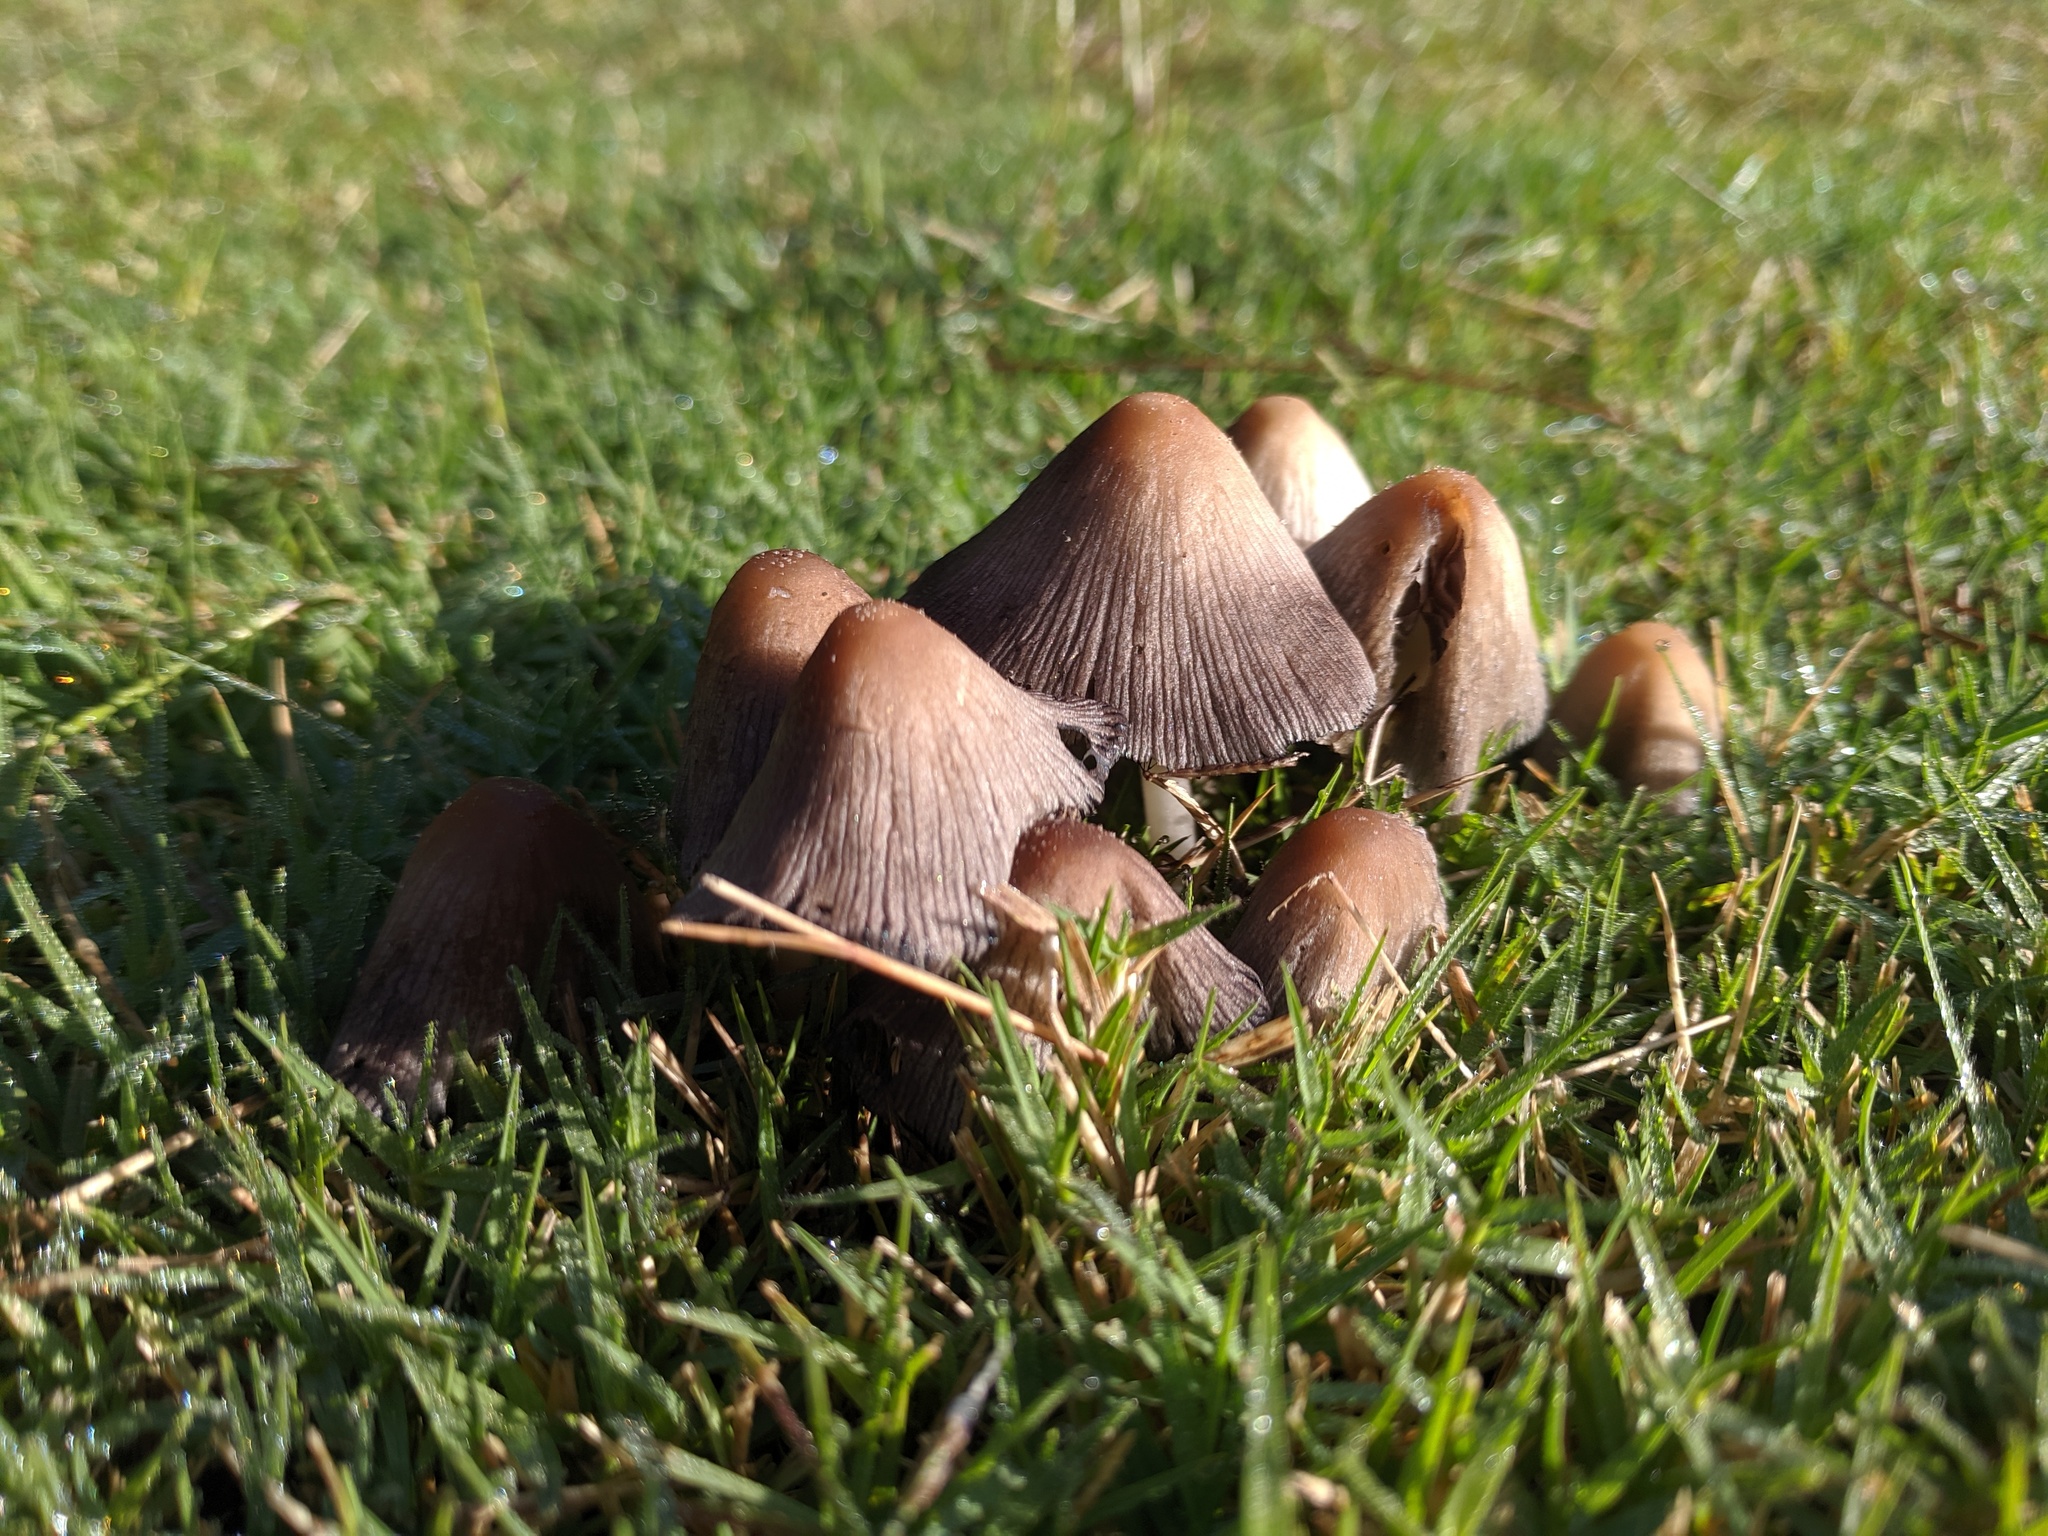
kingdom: Fungi
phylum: Basidiomycota
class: Agaricomycetes
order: Agaricales
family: Psathyrellaceae
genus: Coprinellus
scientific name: Coprinellus micaceus
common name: Glistening ink-cap
